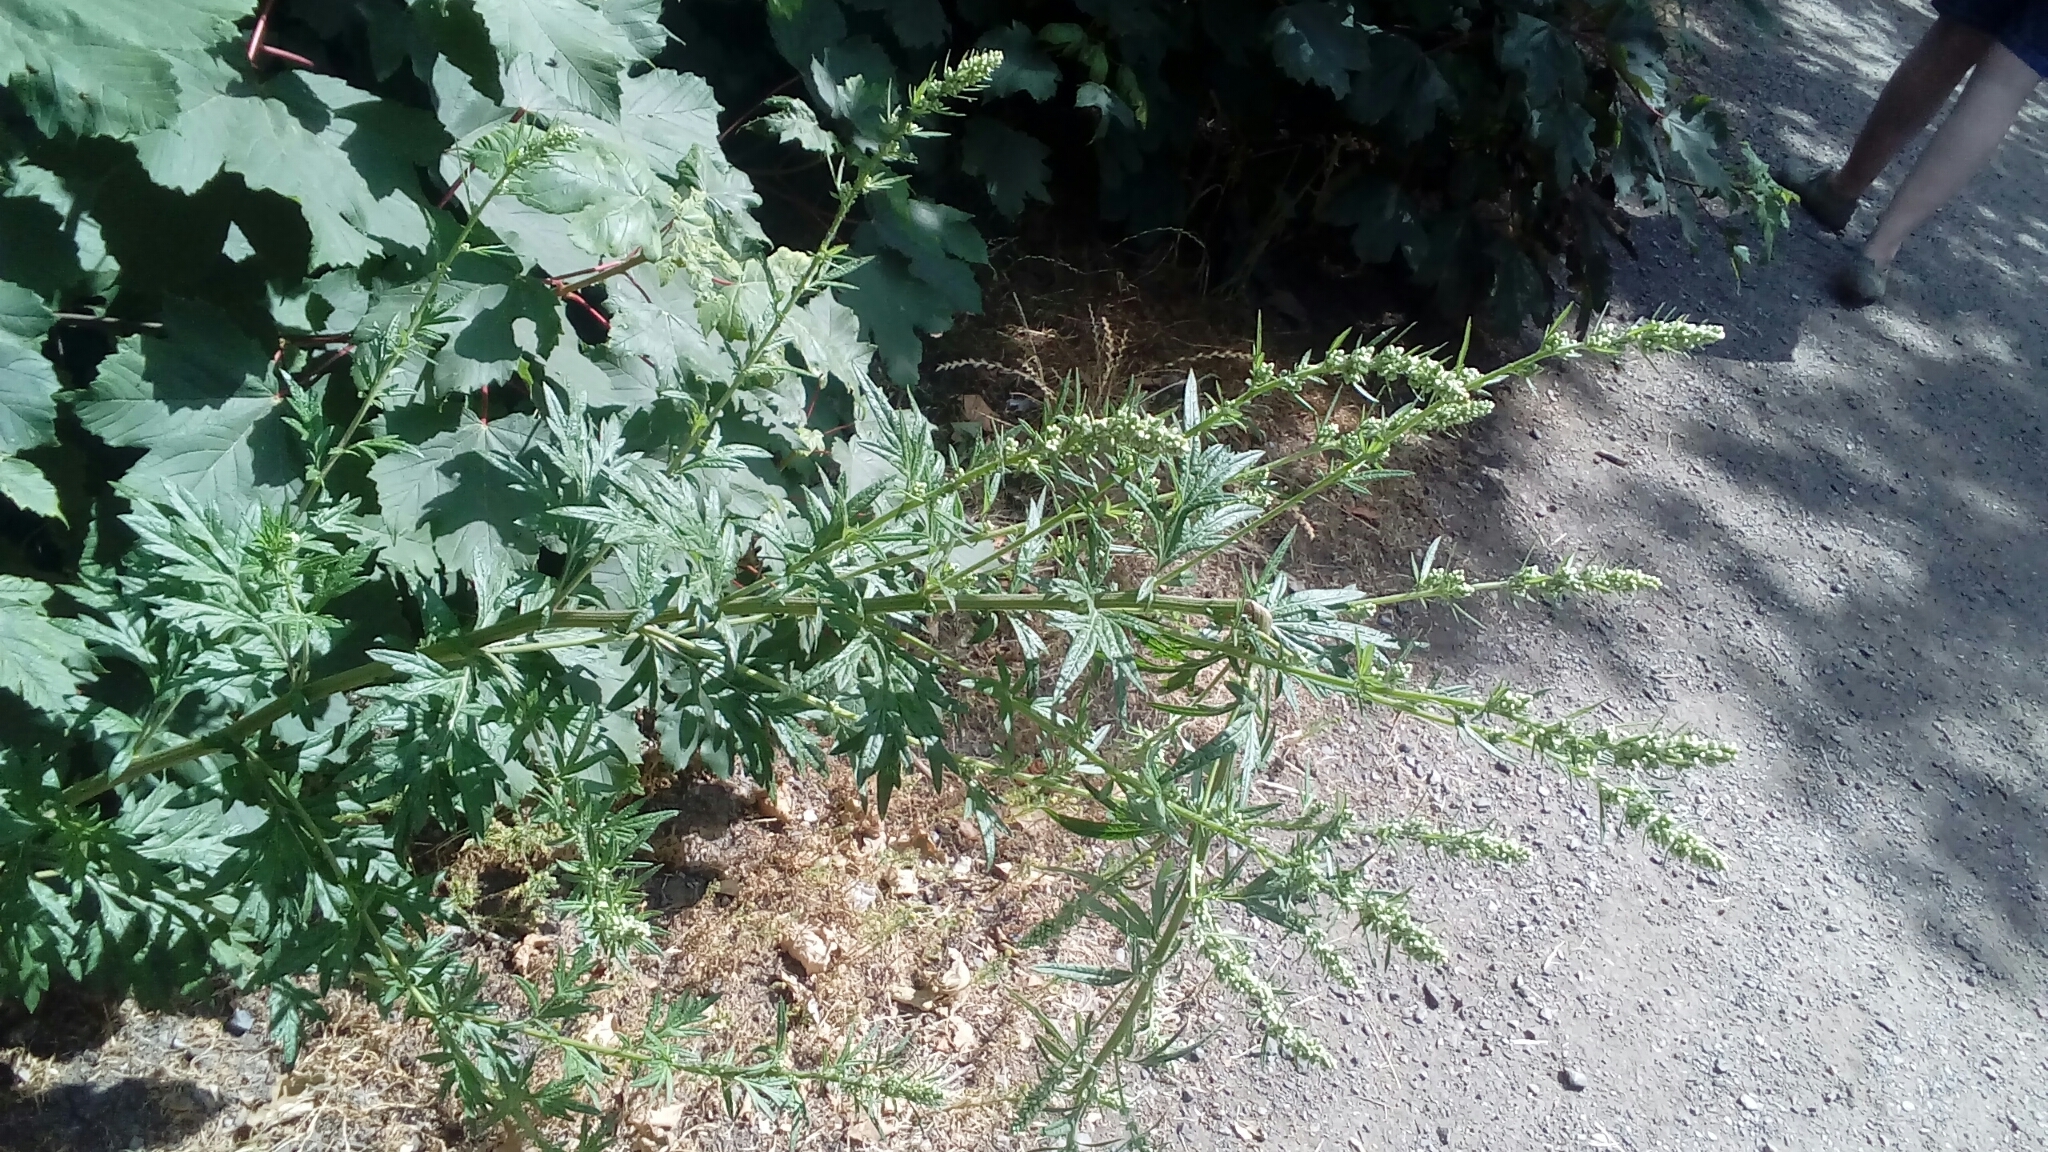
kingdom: Plantae
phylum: Tracheophyta
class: Magnoliopsida
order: Asterales
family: Asteraceae
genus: Artemisia
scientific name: Artemisia vulgaris
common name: Mugwort
